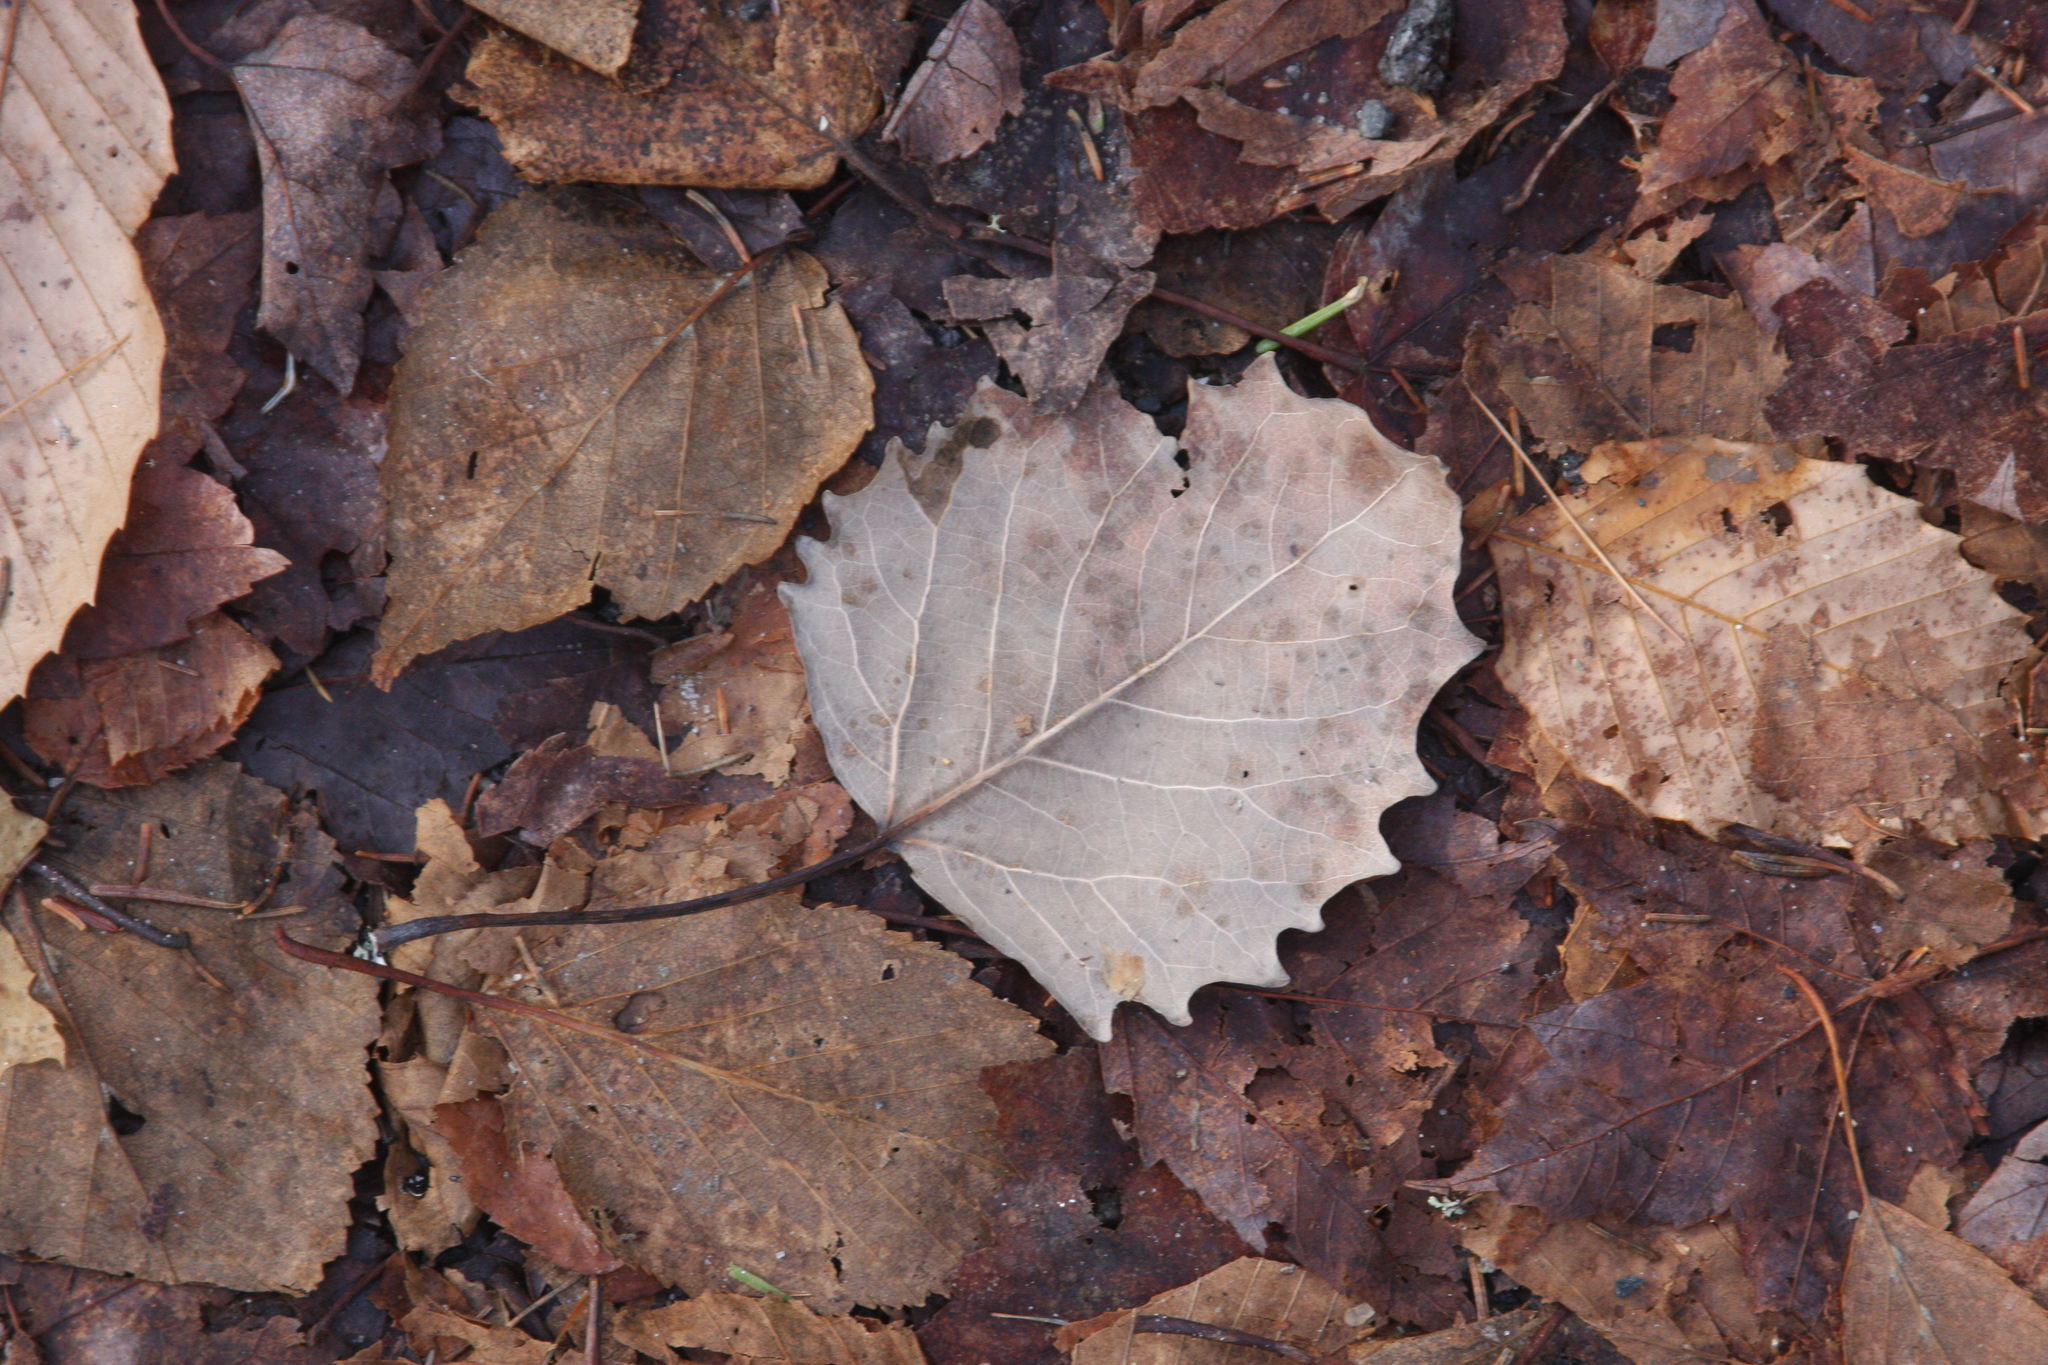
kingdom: Plantae
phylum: Tracheophyta
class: Magnoliopsida
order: Malpighiales
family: Salicaceae
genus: Populus
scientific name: Populus grandidentata
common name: Bigtooth aspen
